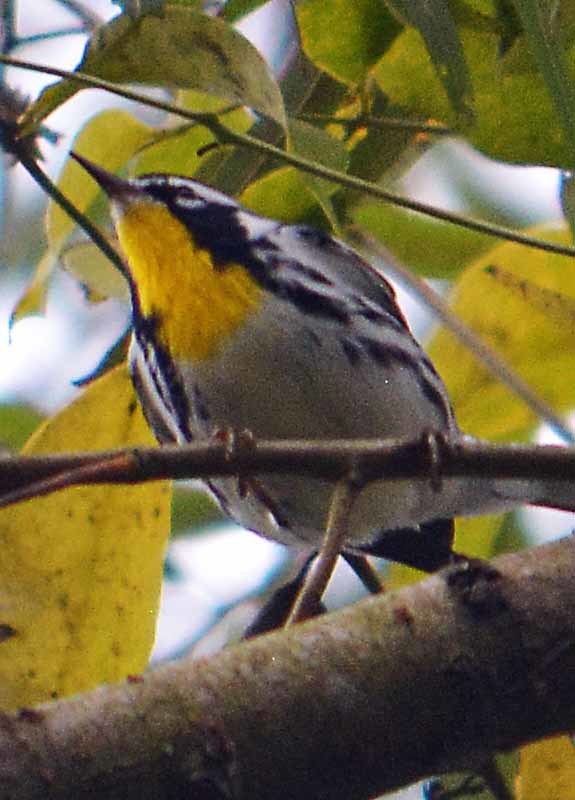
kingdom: Animalia
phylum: Chordata
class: Aves
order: Passeriformes
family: Parulidae
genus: Setophaga
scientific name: Setophaga dominica
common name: Yellow-throated warbler
